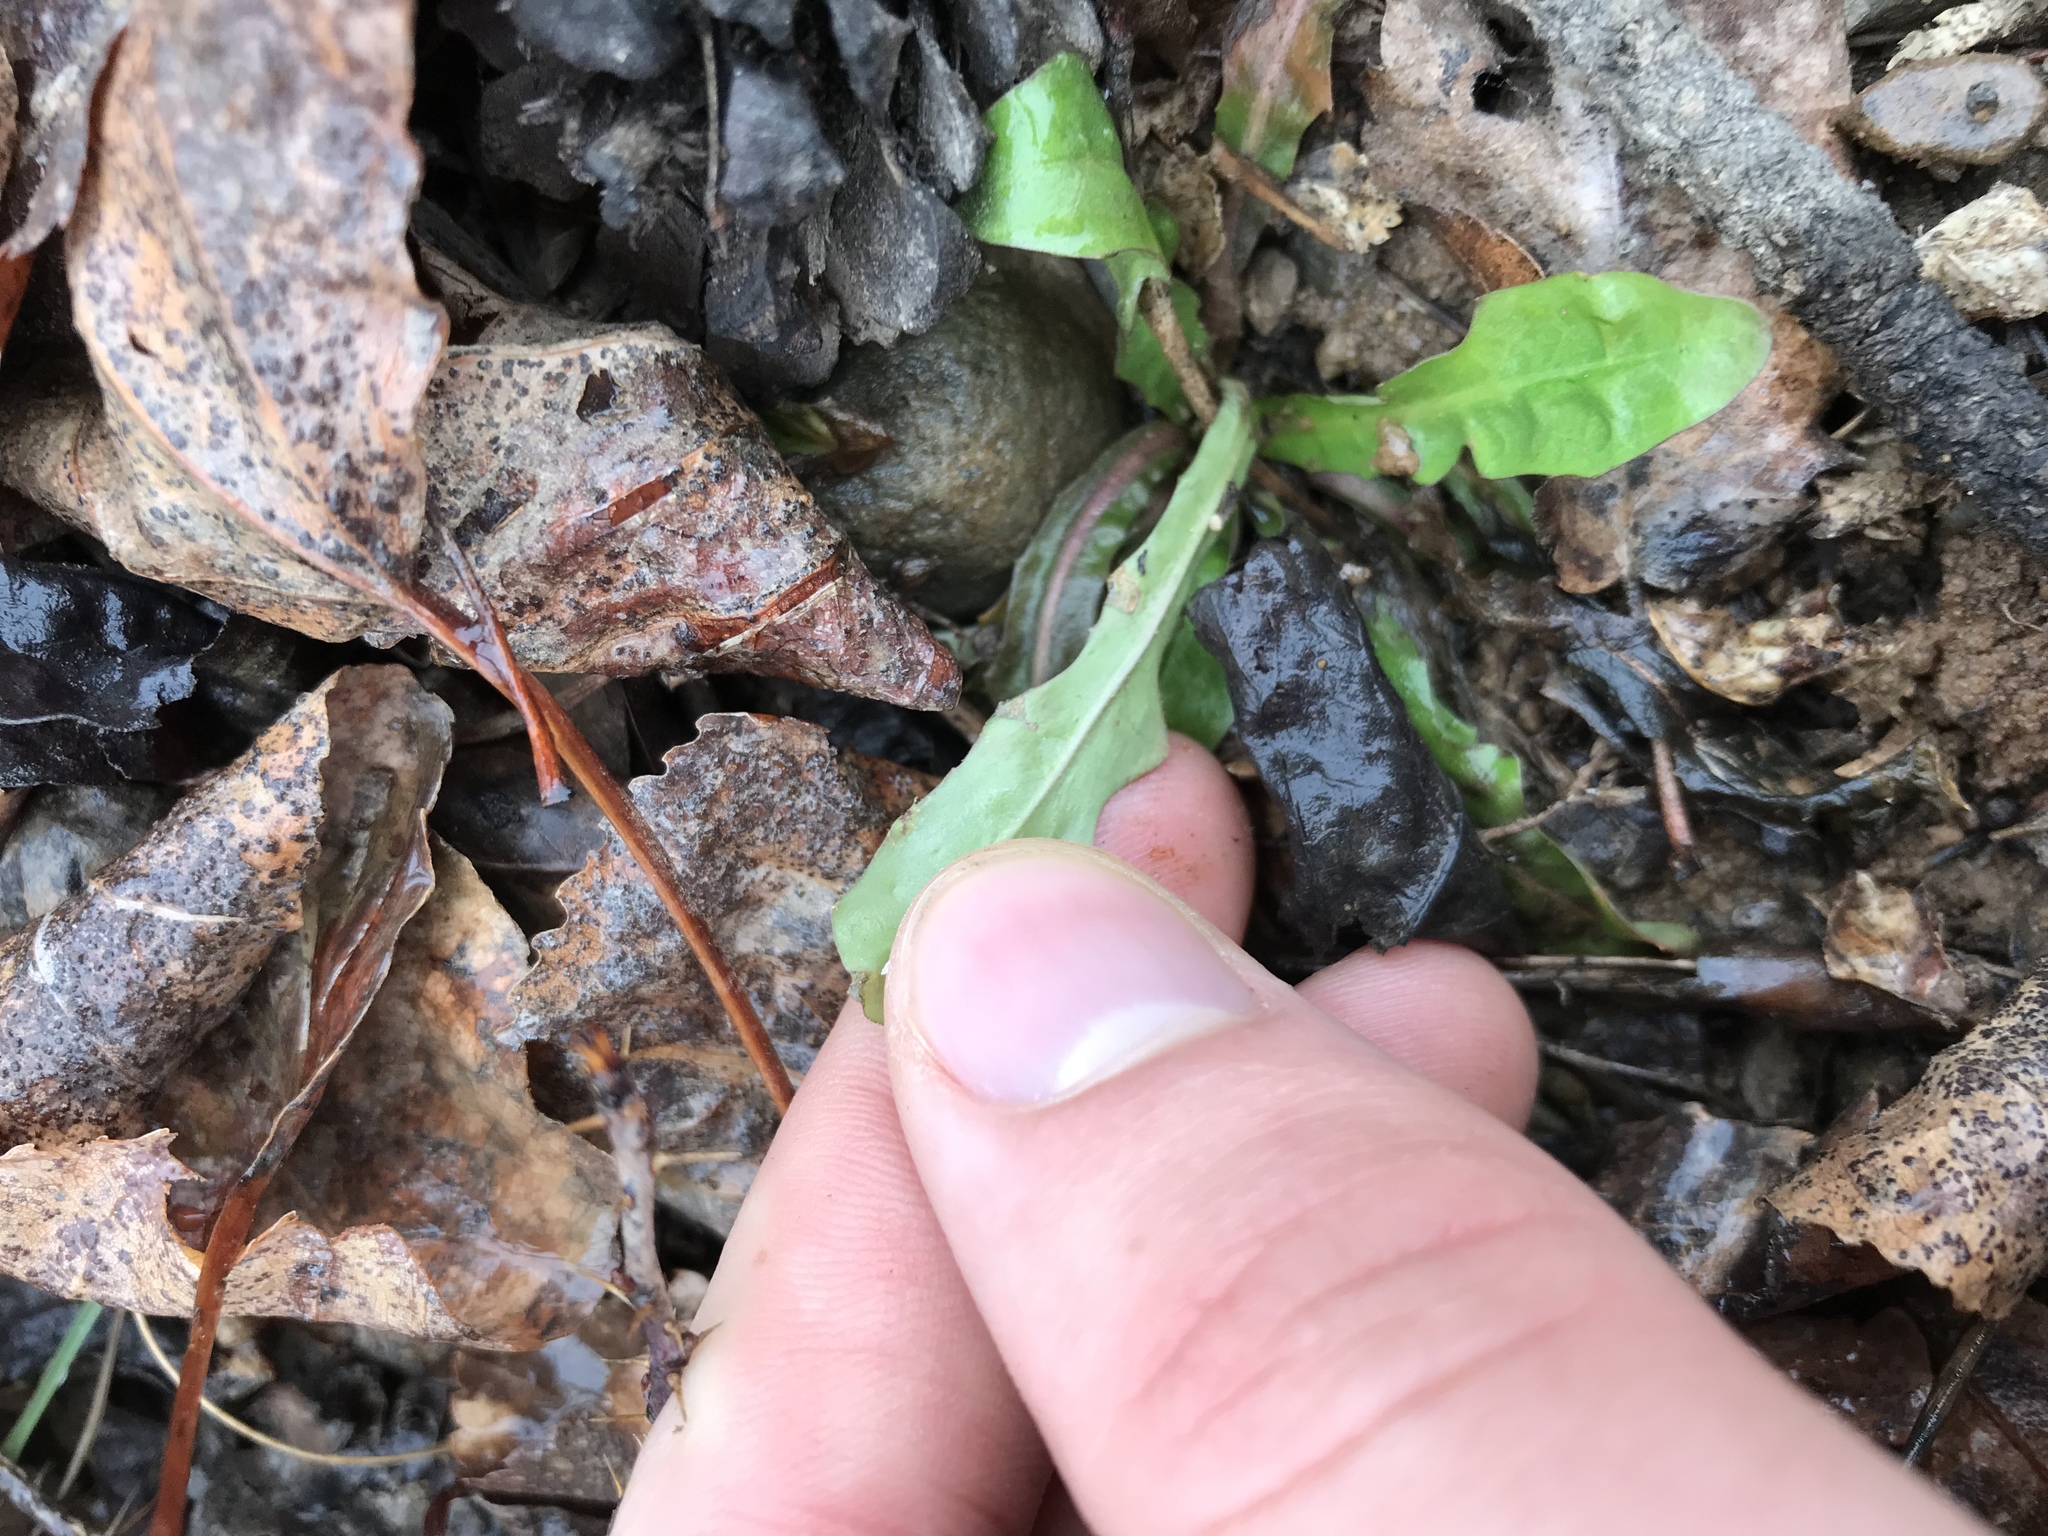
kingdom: Plantae
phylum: Tracheophyta
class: Magnoliopsida
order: Asterales
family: Asteraceae
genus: Taraxacum
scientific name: Taraxacum officinale
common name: Common dandelion
